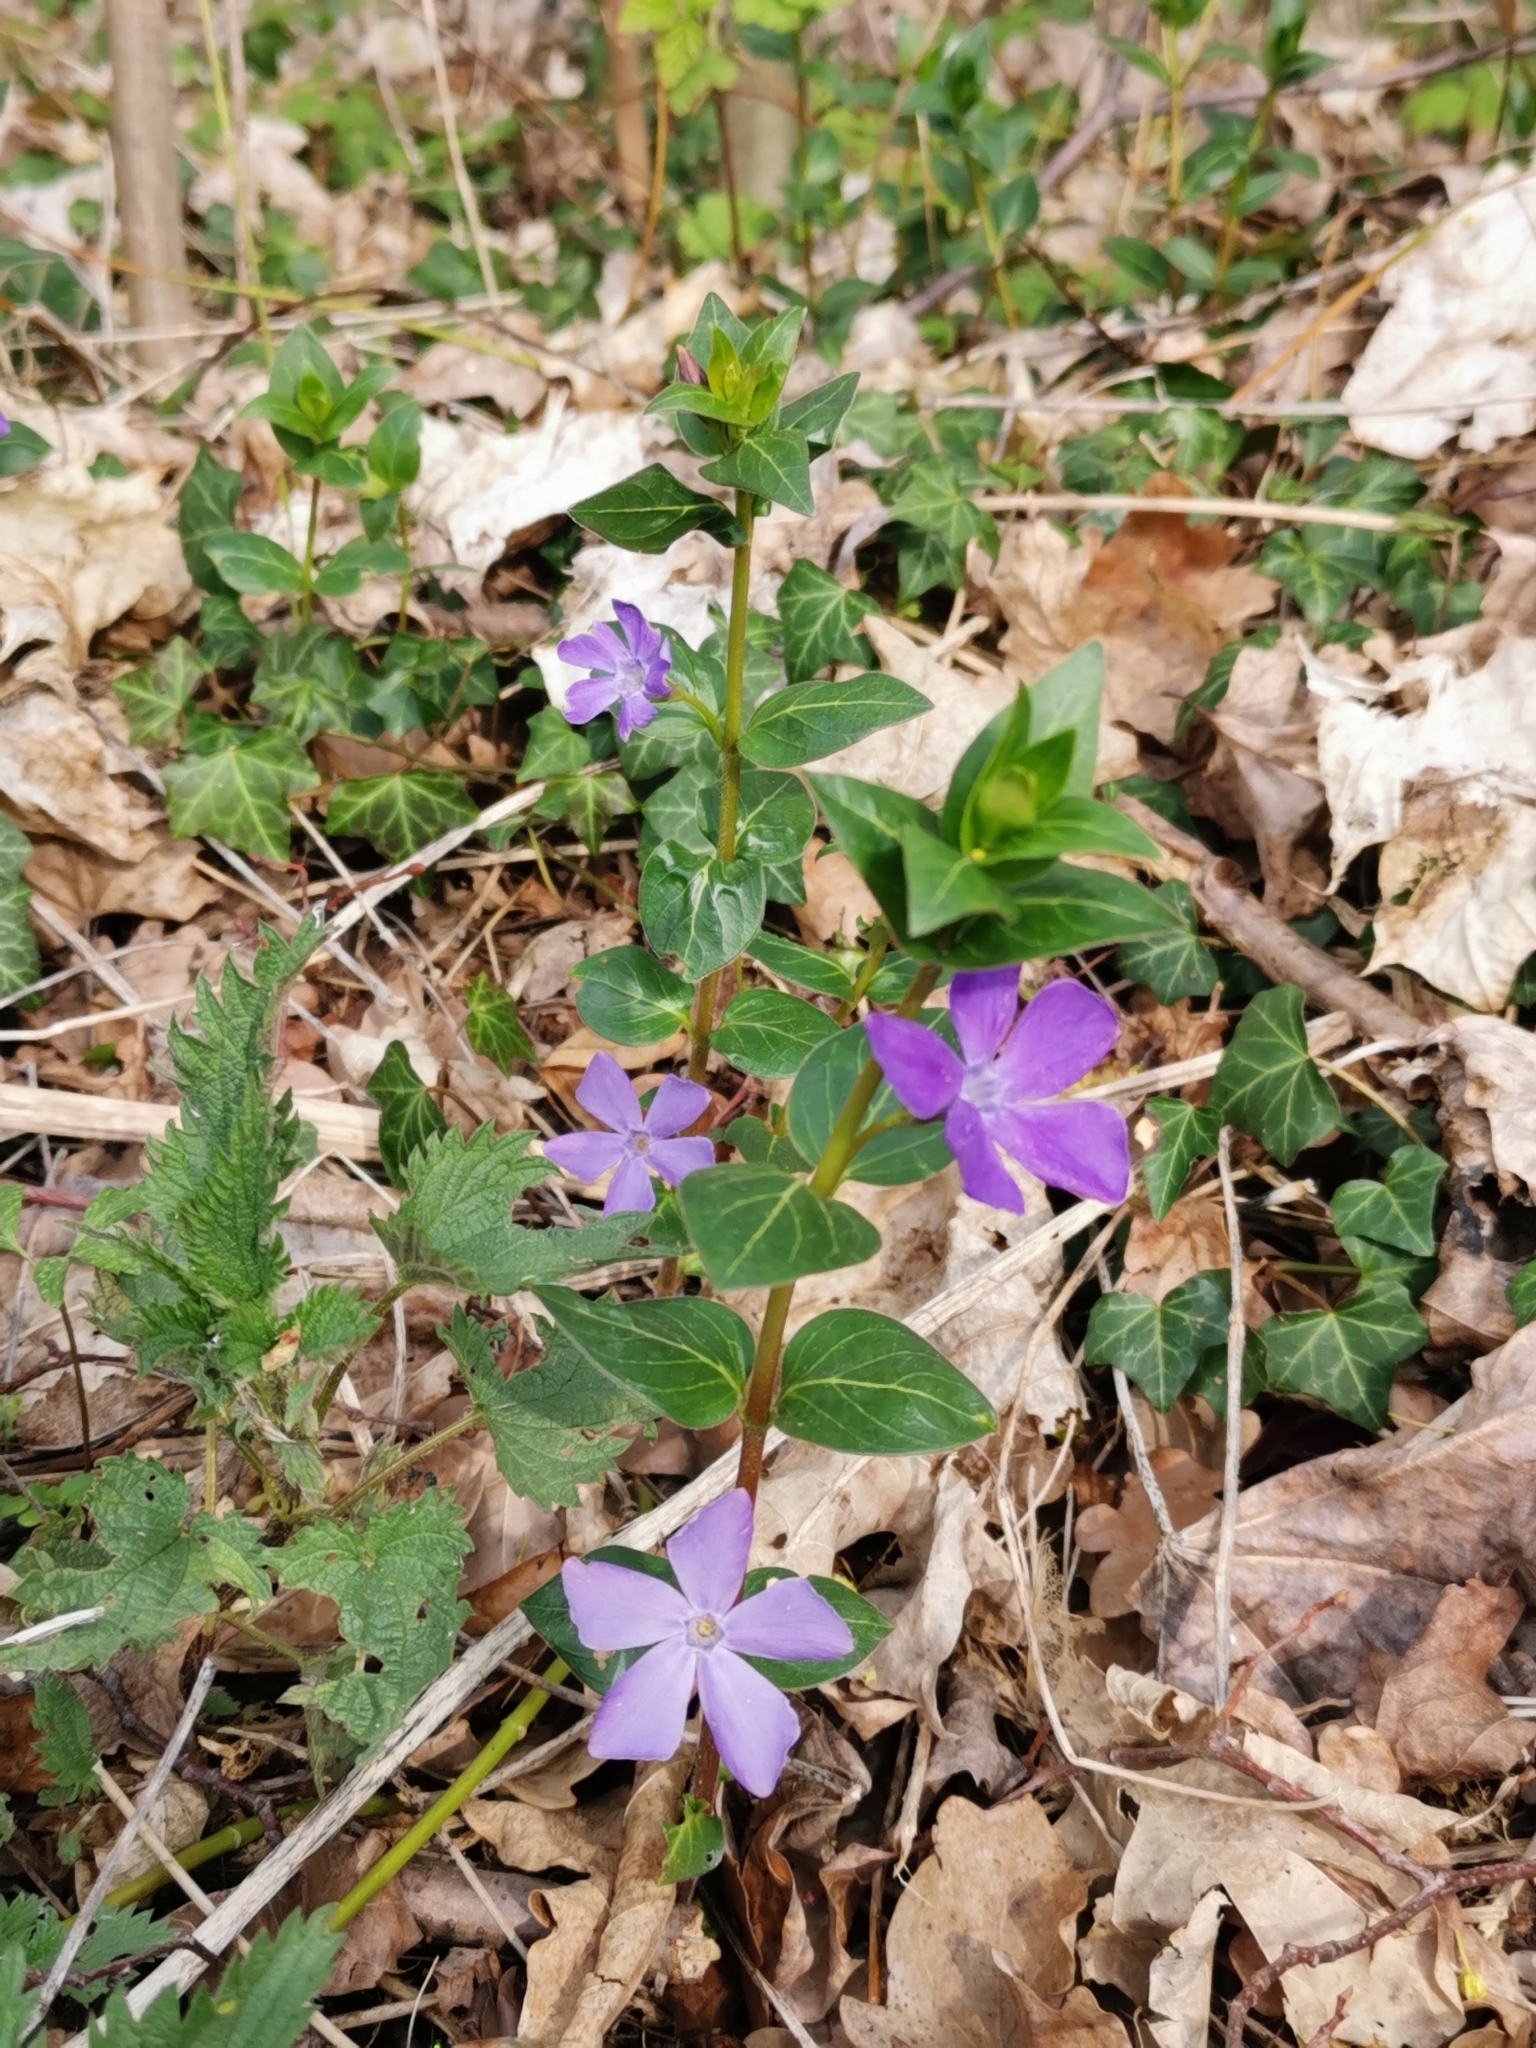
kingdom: Plantae
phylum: Tracheophyta
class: Magnoliopsida
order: Gentianales
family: Apocynaceae
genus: Vinca
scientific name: Vinca major
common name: Greater periwinkle
